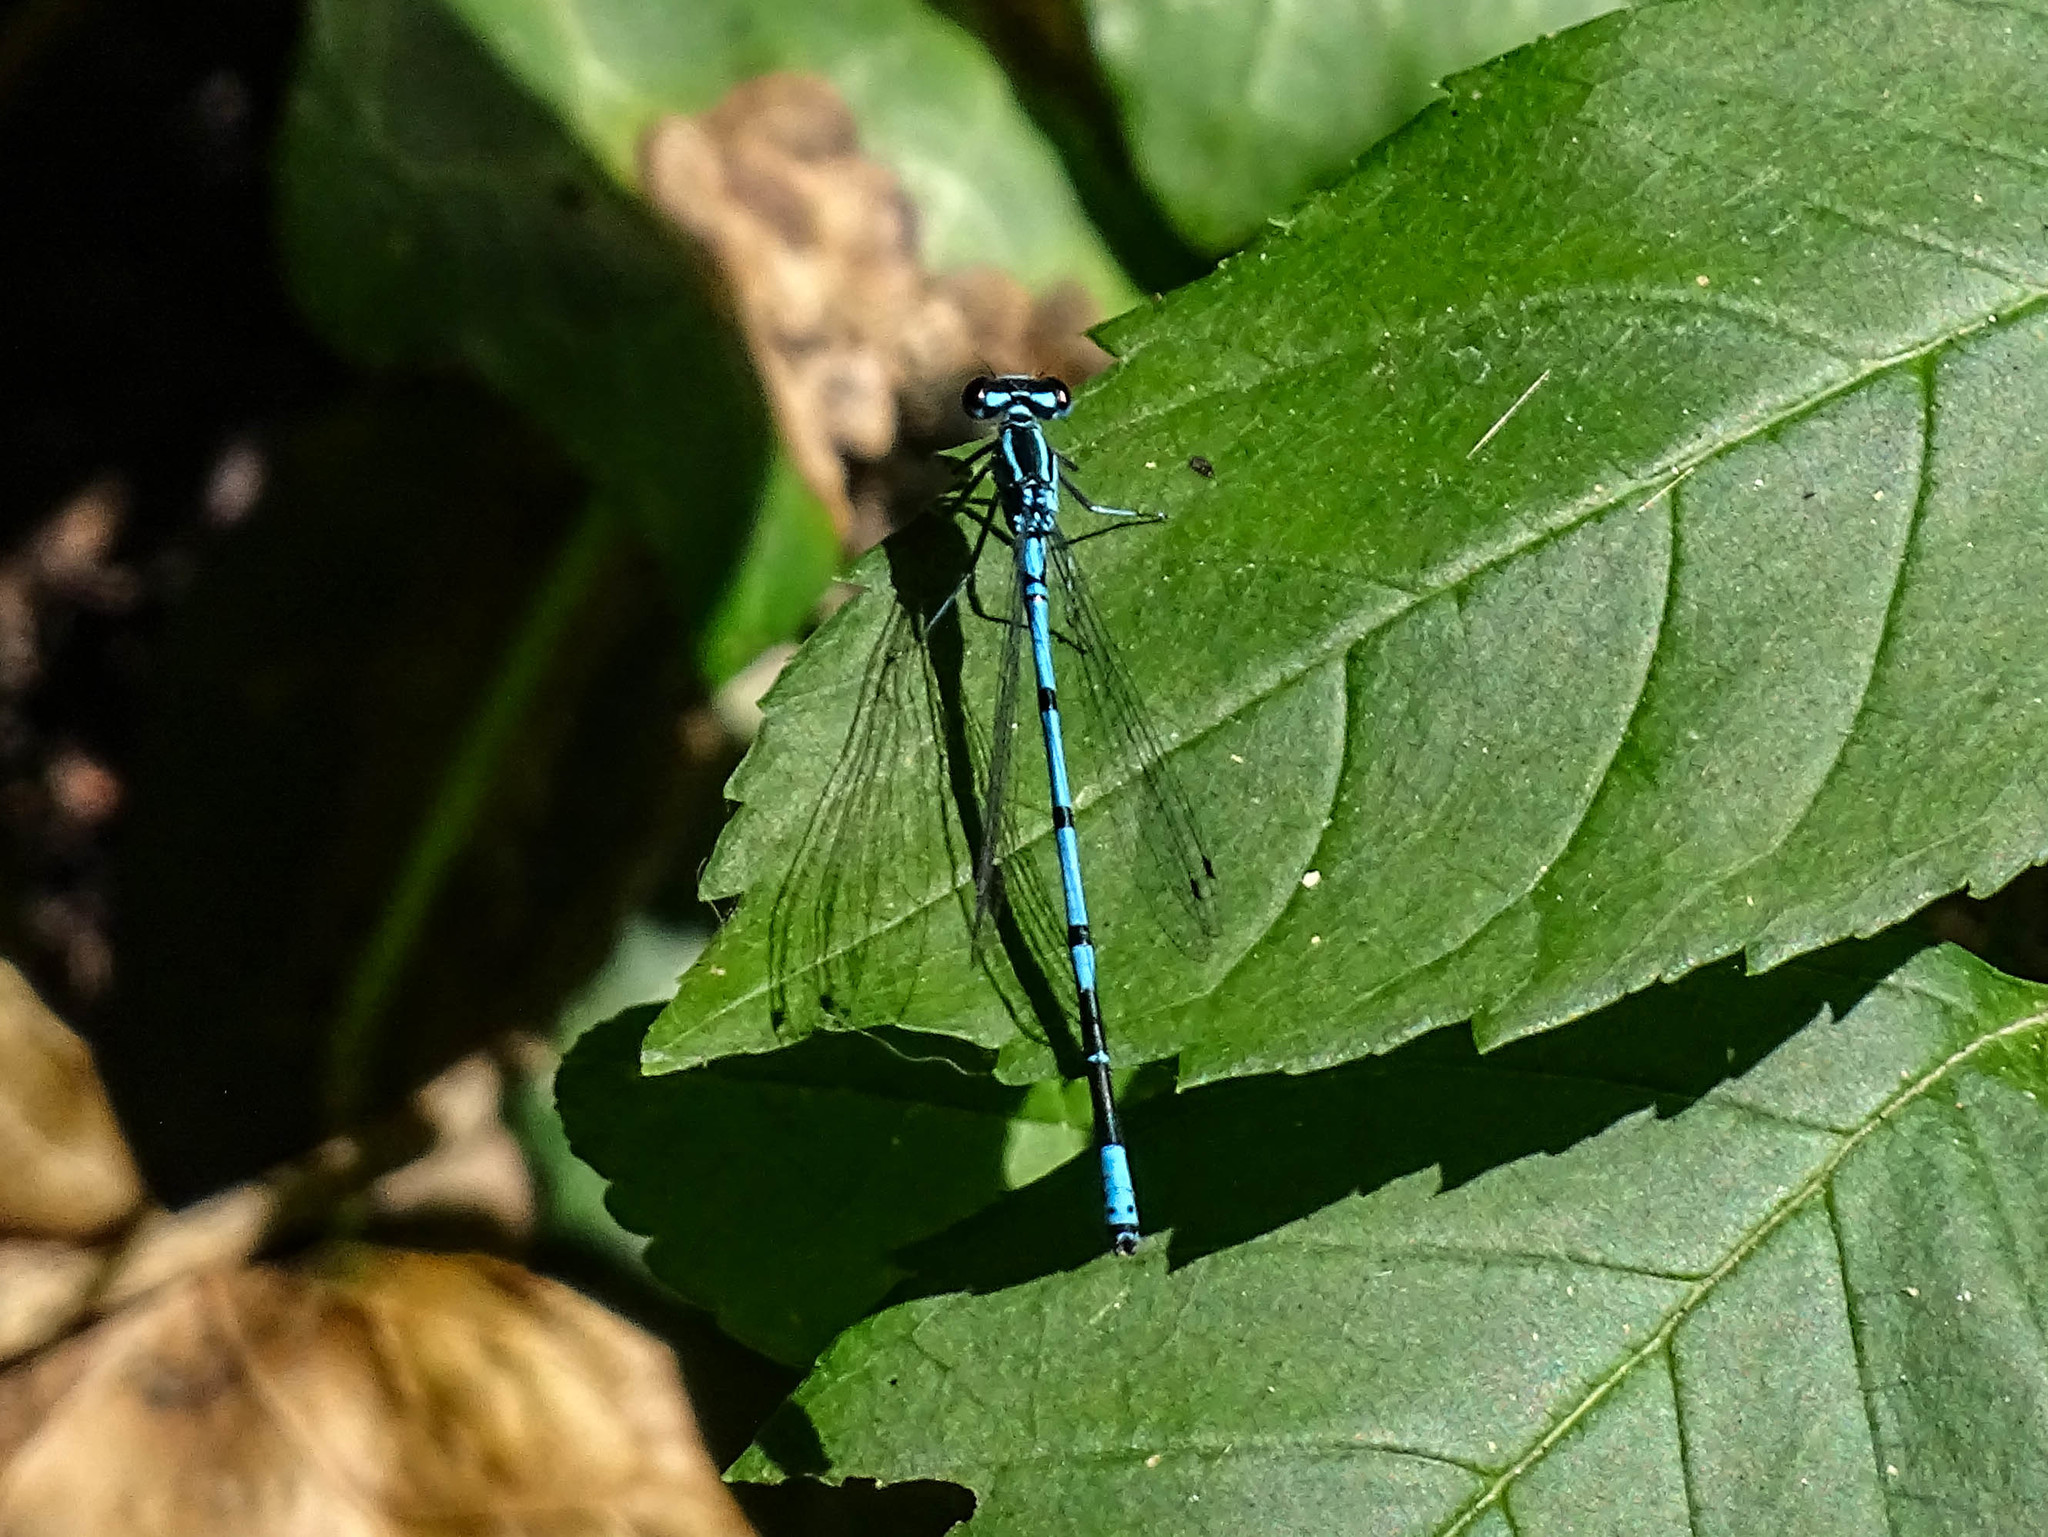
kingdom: Animalia
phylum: Arthropoda
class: Insecta
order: Odonata
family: Coenagrionidae
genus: Coenagrion
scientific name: Coenagrion puella
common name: Azure damselfly
